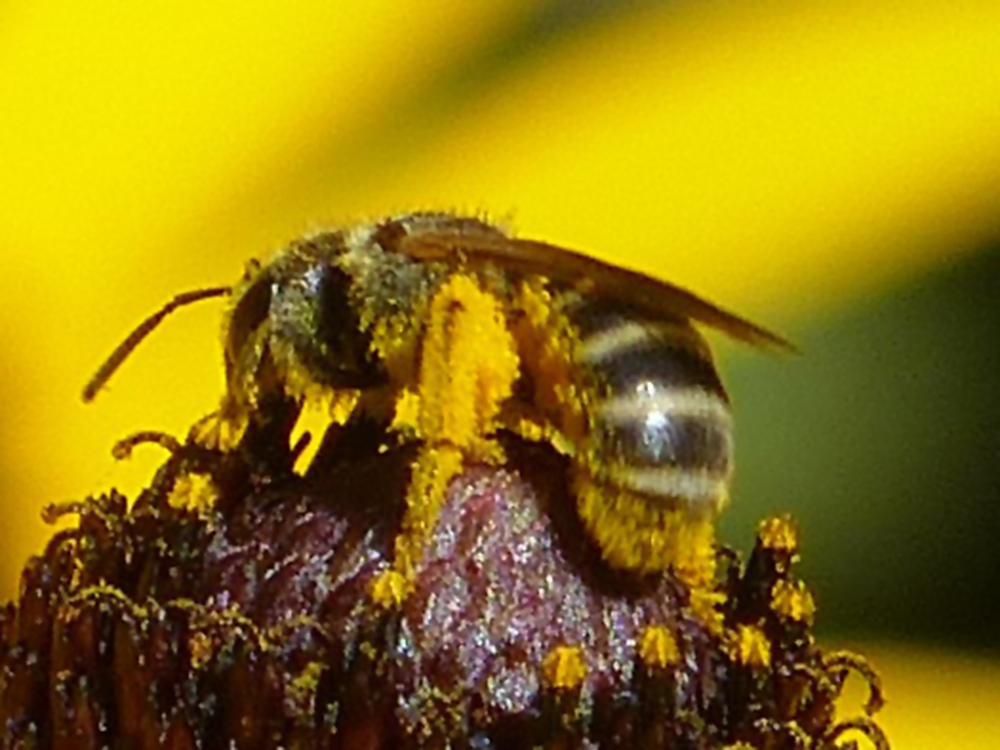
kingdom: Animalia
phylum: Arthropoda
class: Insecta
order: Hymenoptera
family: Halictidae
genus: Halictus
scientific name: Halictus ligatus
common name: Ligated furrow bee
